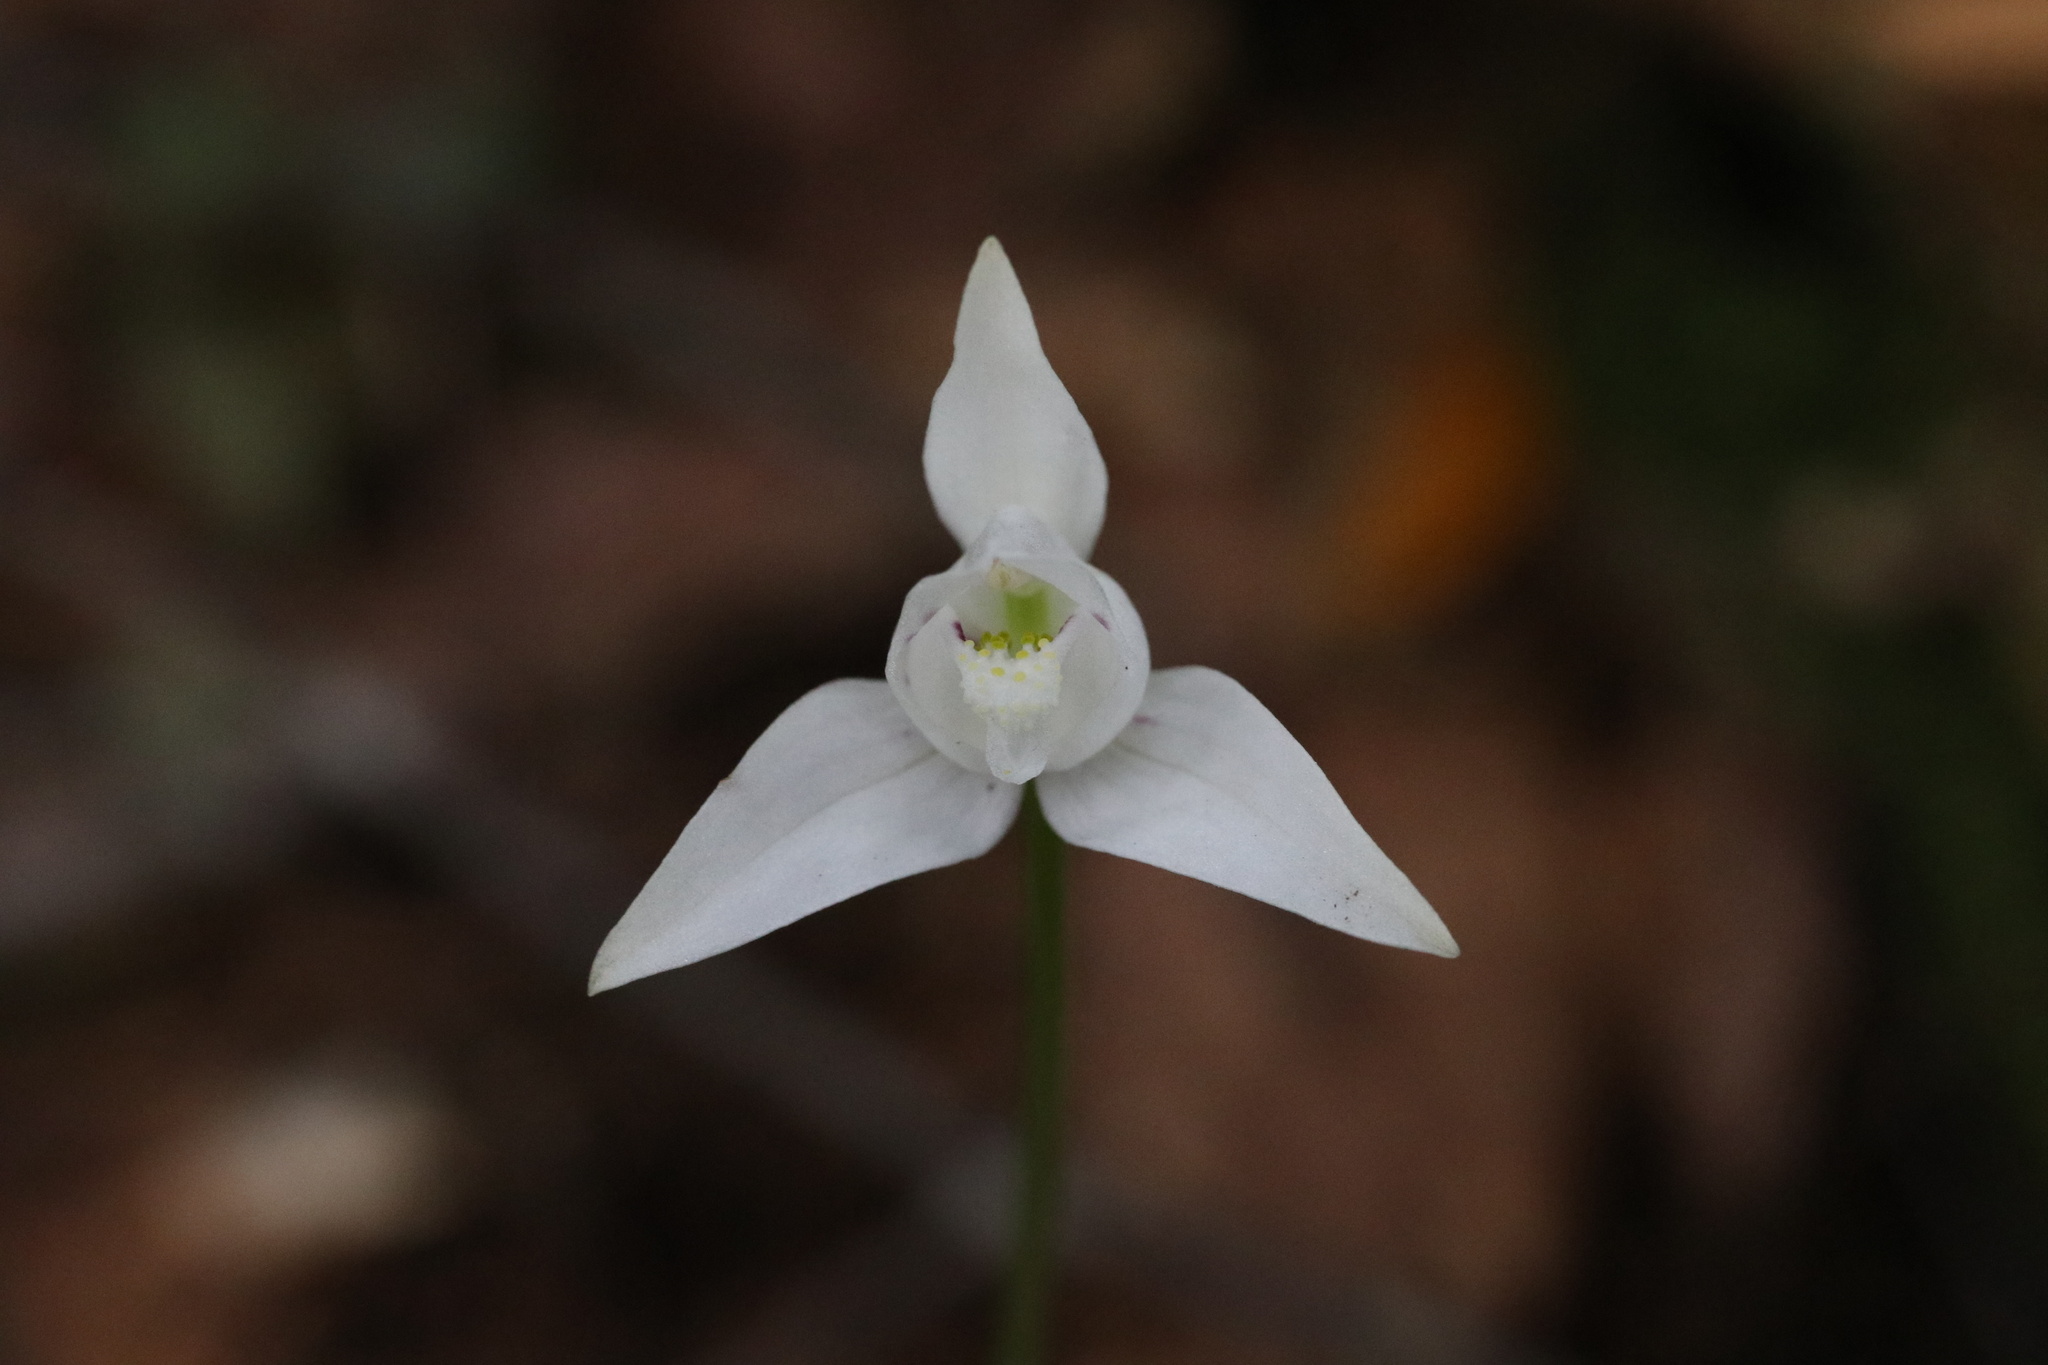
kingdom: Plantae
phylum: Tracheophyta
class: Liliopsida
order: Asparagales
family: Orchidaceae
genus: Codonorchis
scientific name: Codonorchis lessonii
